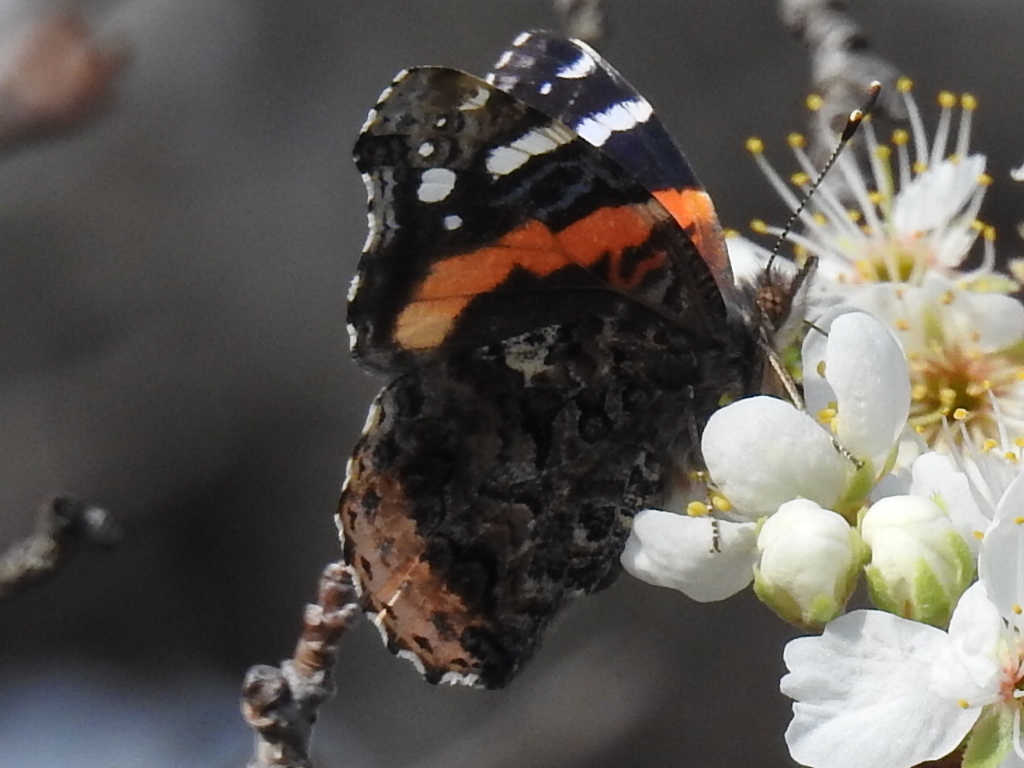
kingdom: Animalia
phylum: Arthropoda
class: Insecta
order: Lepidoptera
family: Nymphalidae
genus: Vanessa
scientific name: Vanessa atalanta
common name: Red admiral
